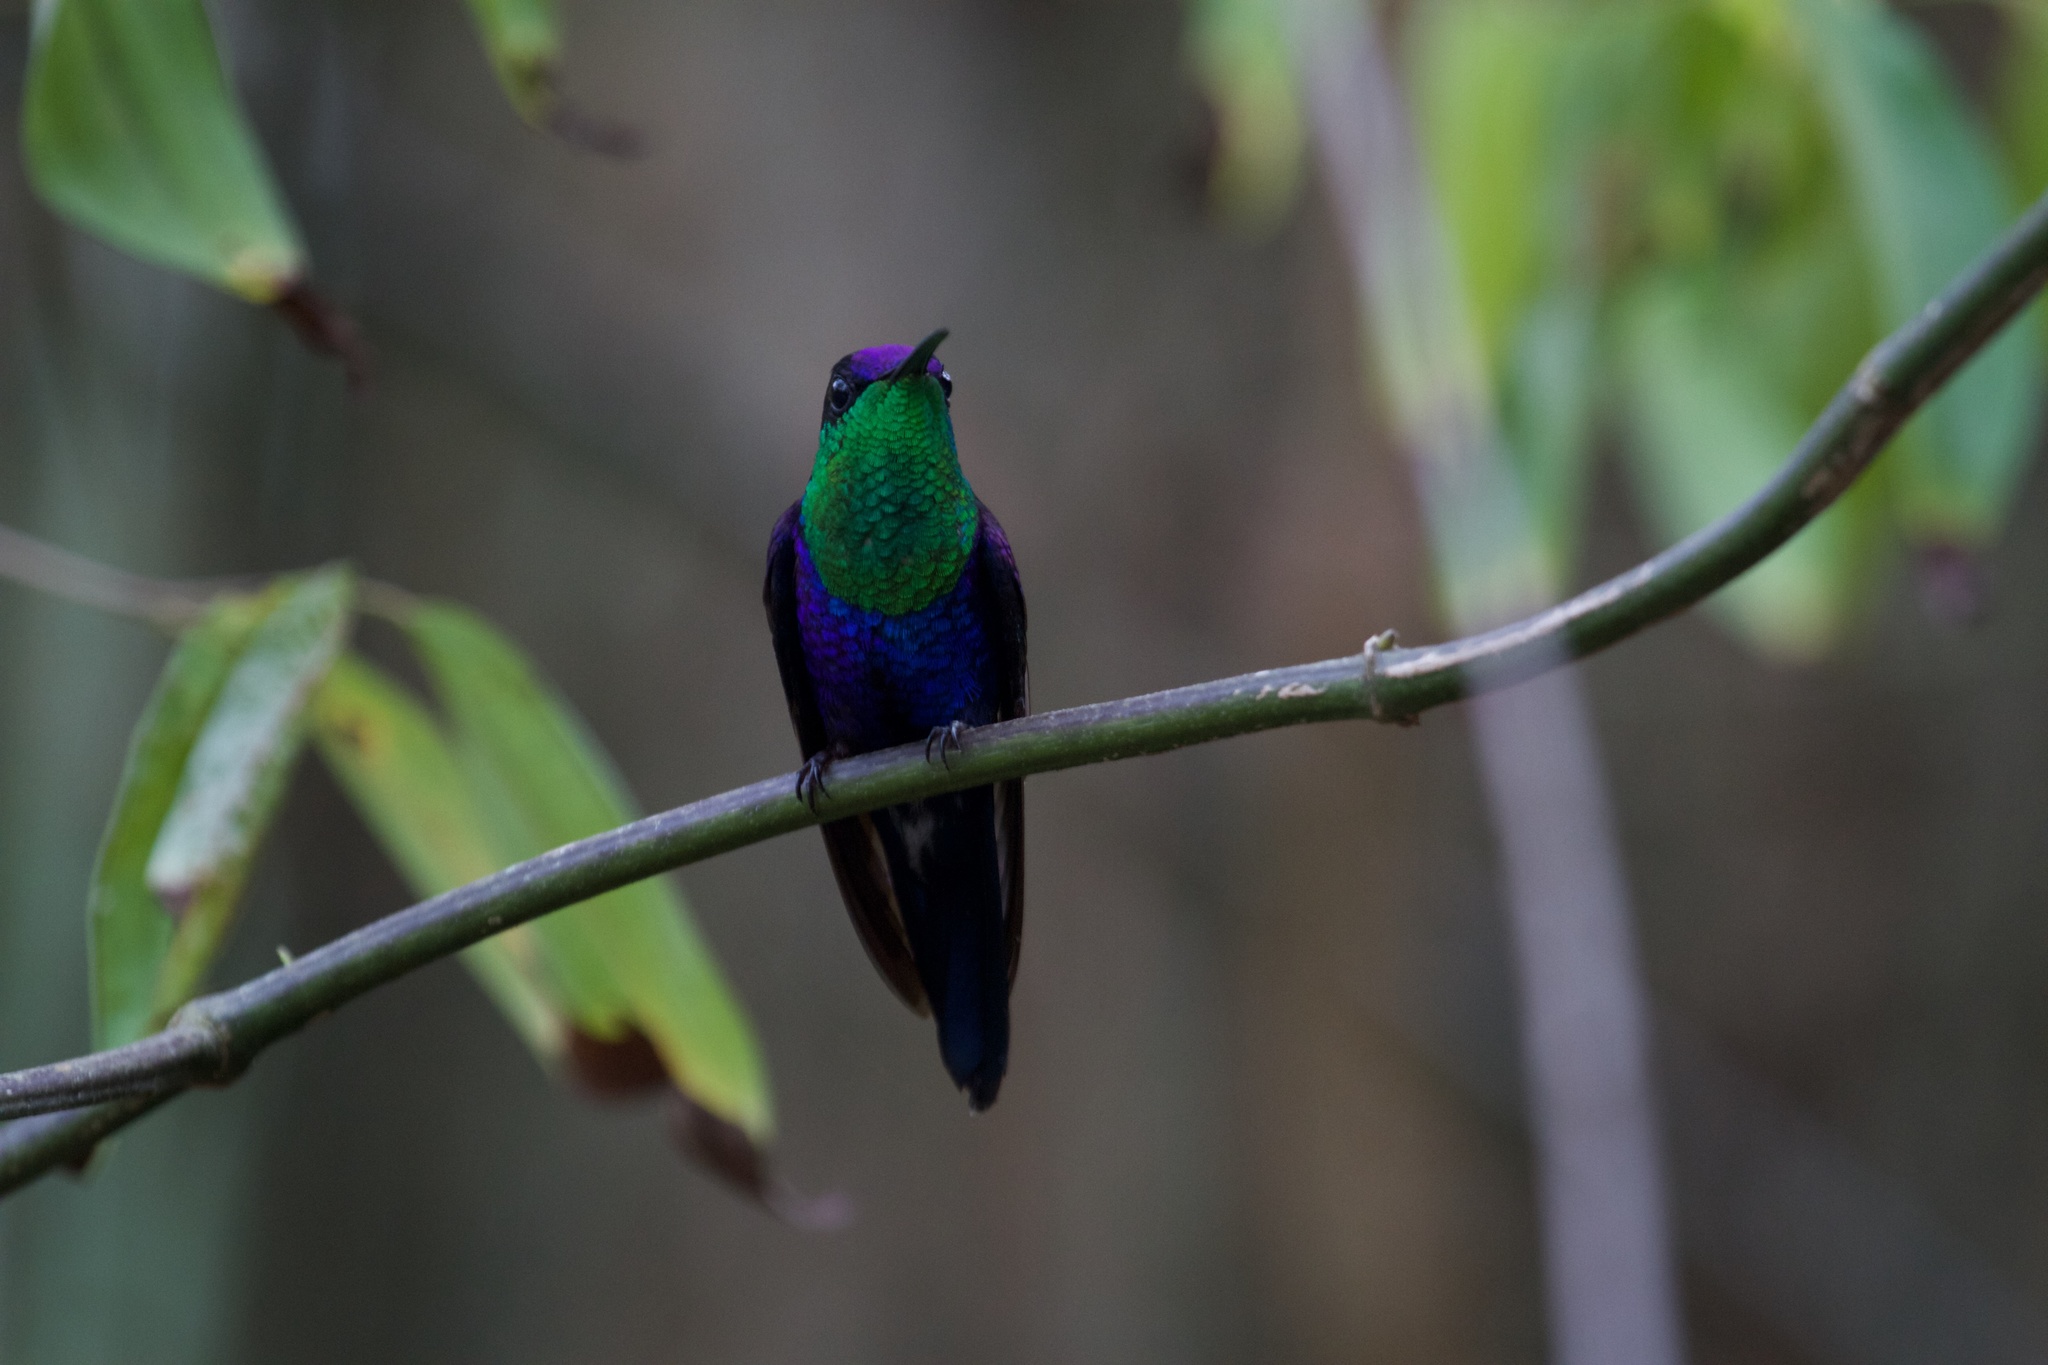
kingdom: Animalia
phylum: Chordata
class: Aves
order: Apodiformes
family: Trochilidae
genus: Thalurania
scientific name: Thalurania colombica
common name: Crowned woodnymph
